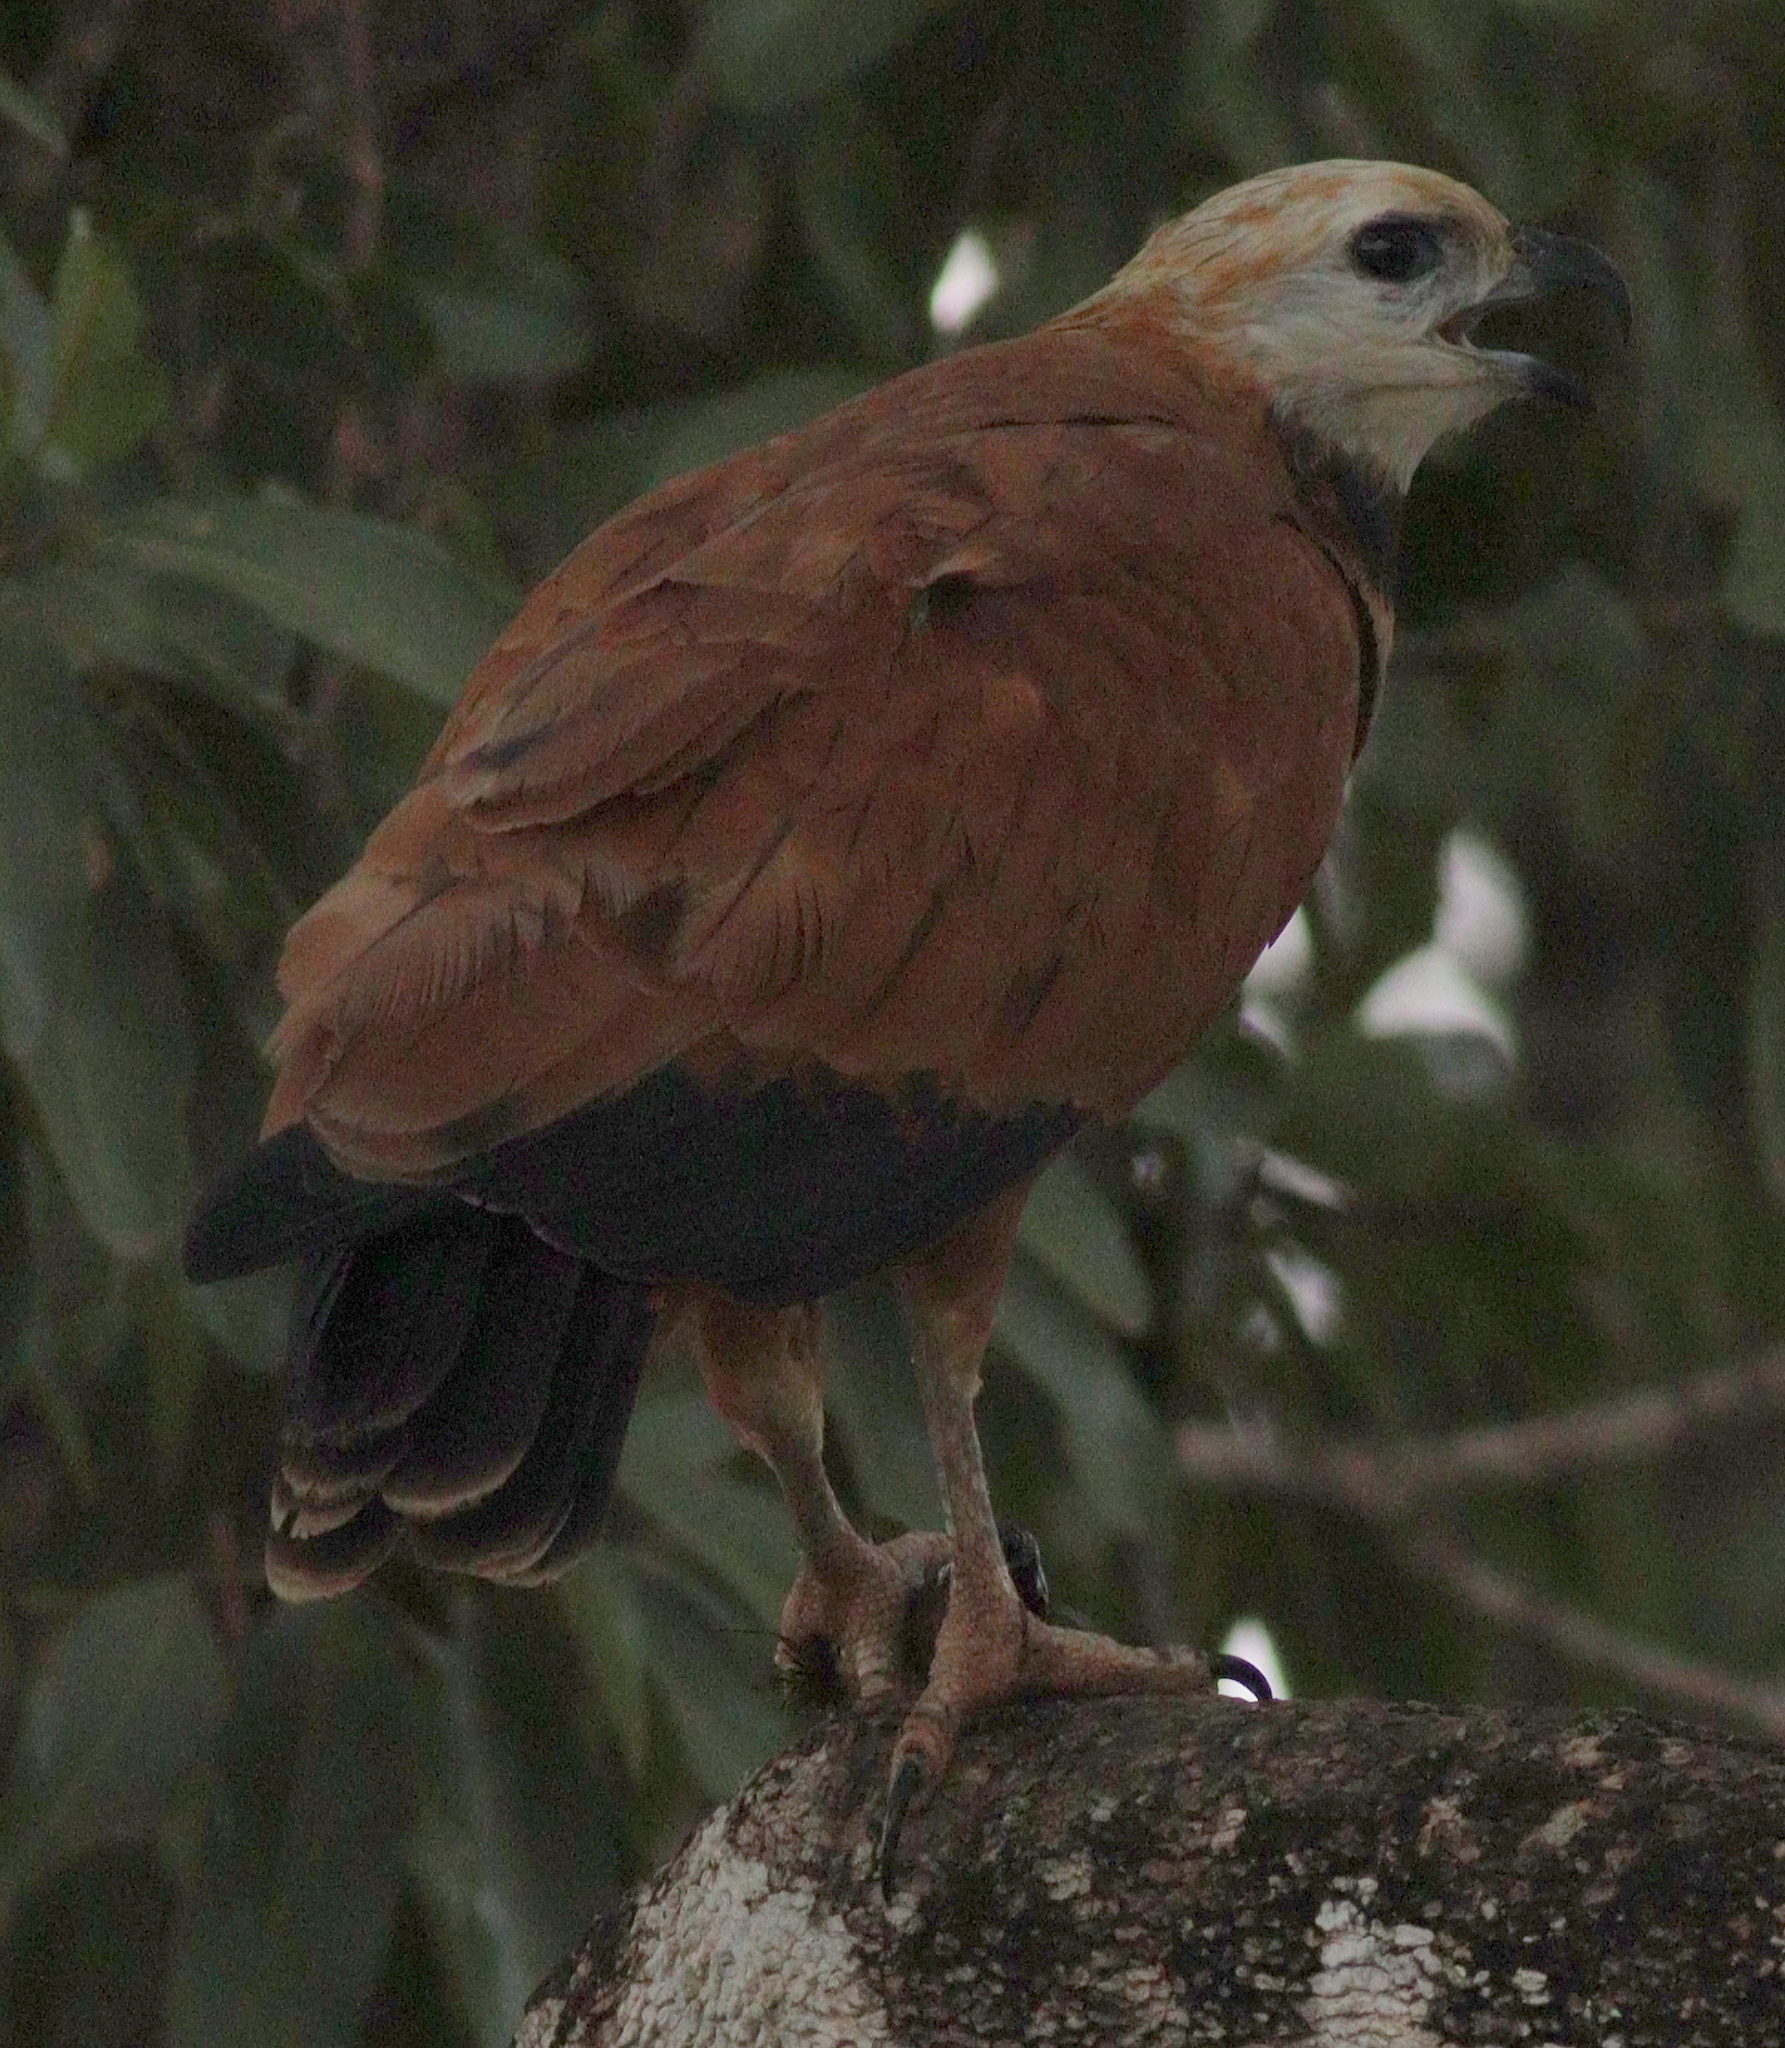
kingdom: Animalia
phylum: Chordata
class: Aves
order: Accipitriformes
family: Accipitridae
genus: Busarellus
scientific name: Busarellus nigricollis
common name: Black-collared hawk
